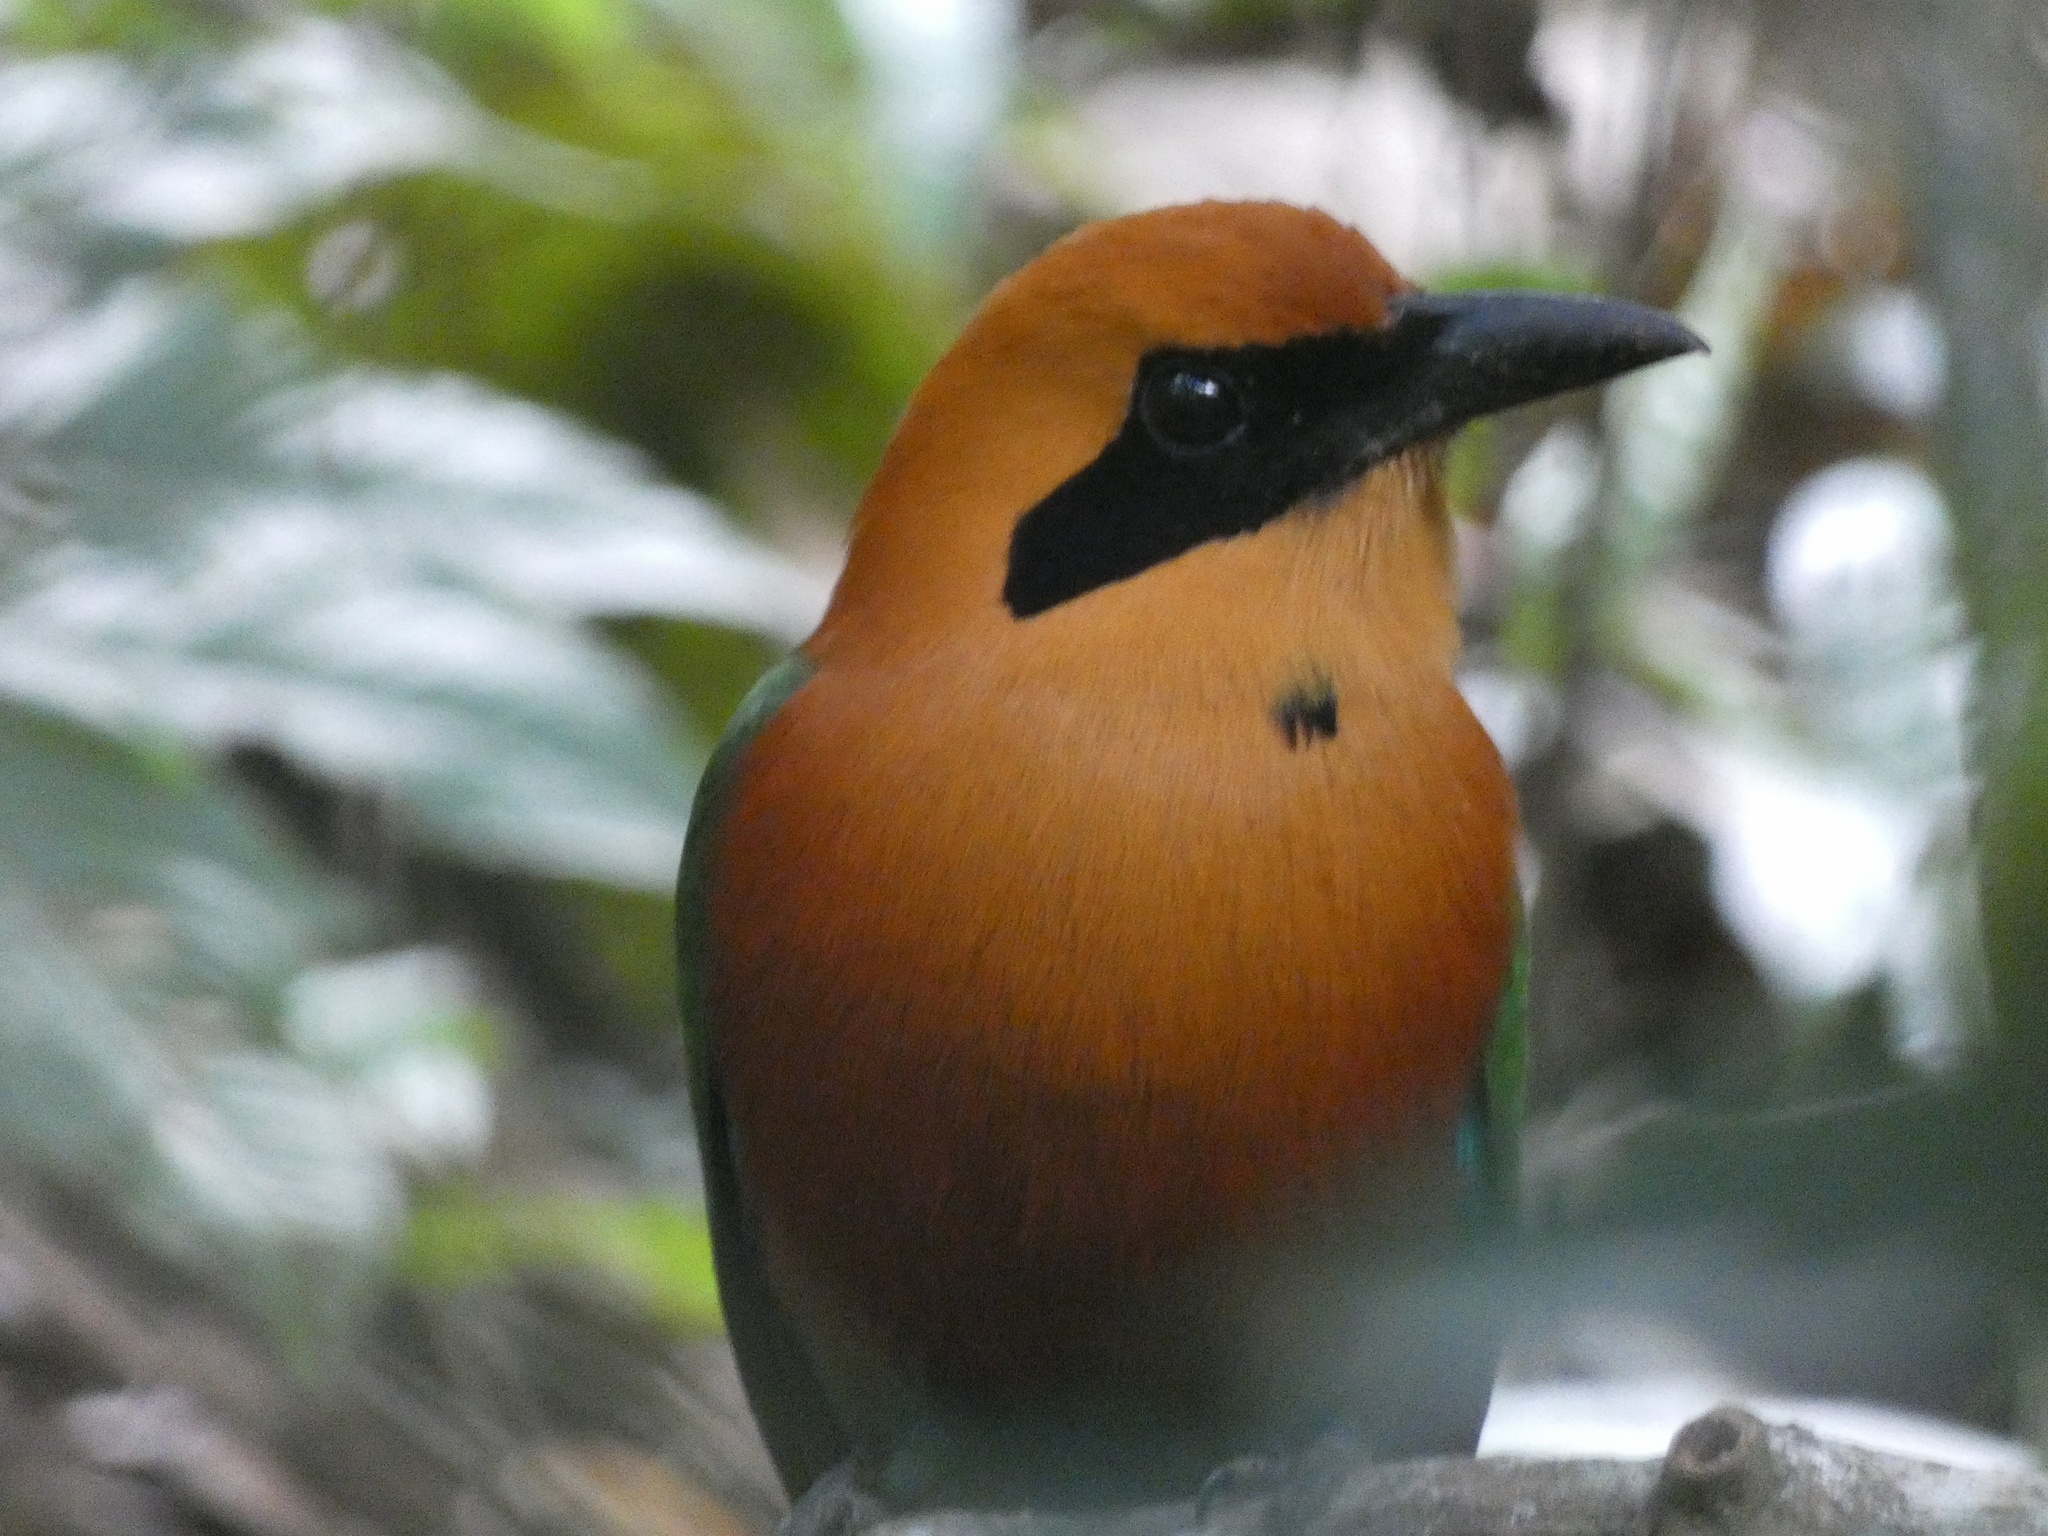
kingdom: Animalia
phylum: Chordata
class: Aves
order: Coraciiformes
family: Momotidae
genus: Baryphthengus
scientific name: Baryphthengus martii
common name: Rufous motmot
